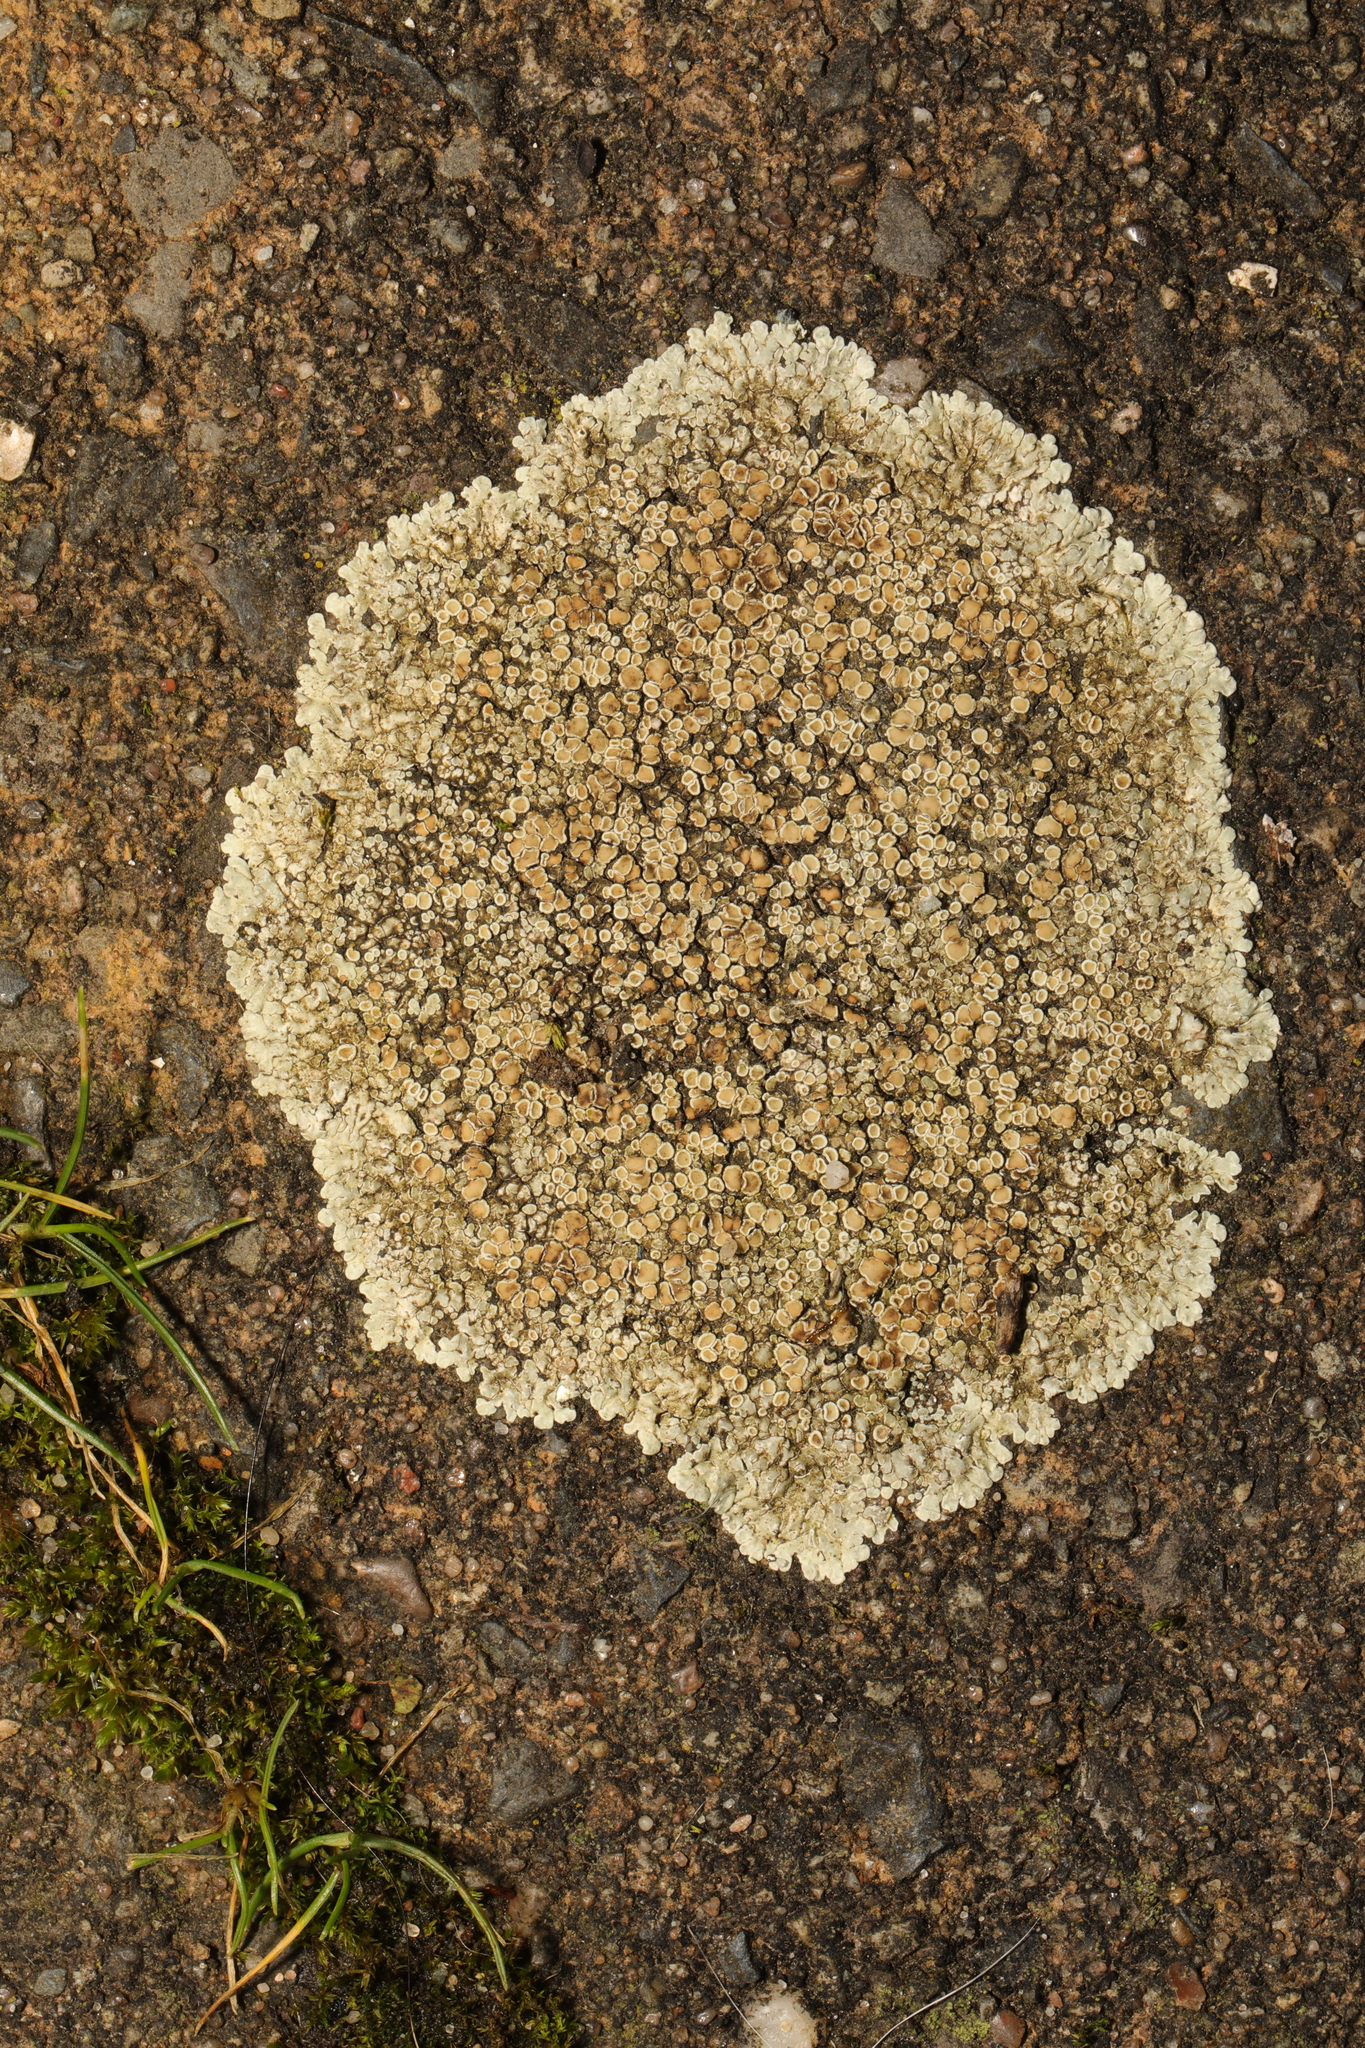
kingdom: Fungi
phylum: Ascomycota
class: Lecanoromycetes
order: Lecanorales
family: Lecanoraceae
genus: Protoparmeliopsis
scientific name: Protoparmeliopsis muralis
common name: Stonewall rim lichen
